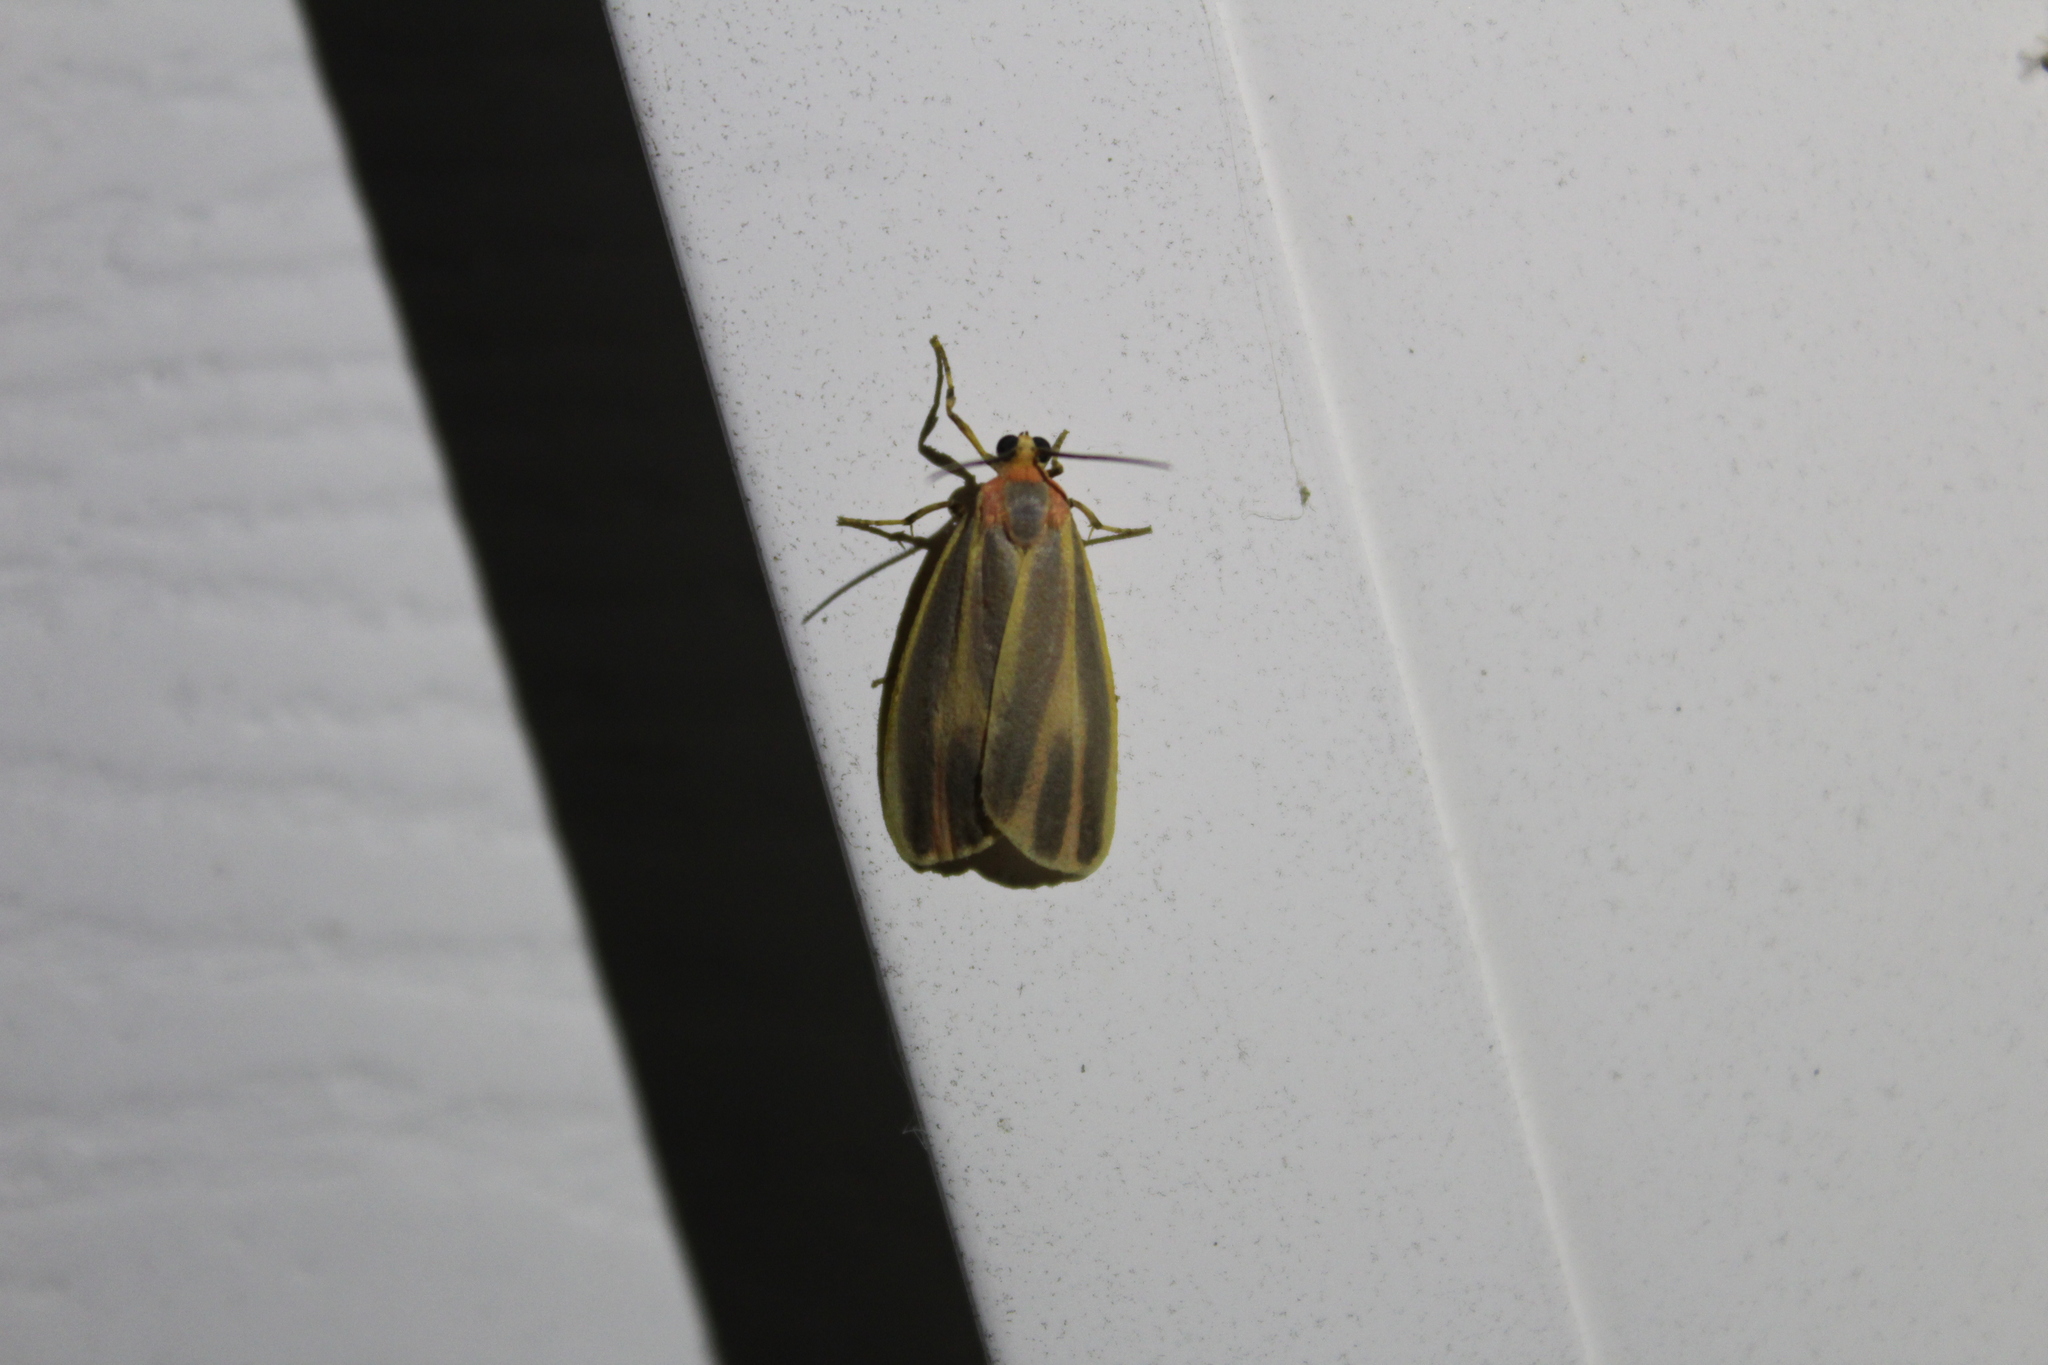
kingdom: Animalia
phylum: Arthropoda
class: Insecta
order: Lepidoptera
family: Erebidae
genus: Hypoprepia
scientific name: Hypoprepia fucosa
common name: Painted lichen moth
